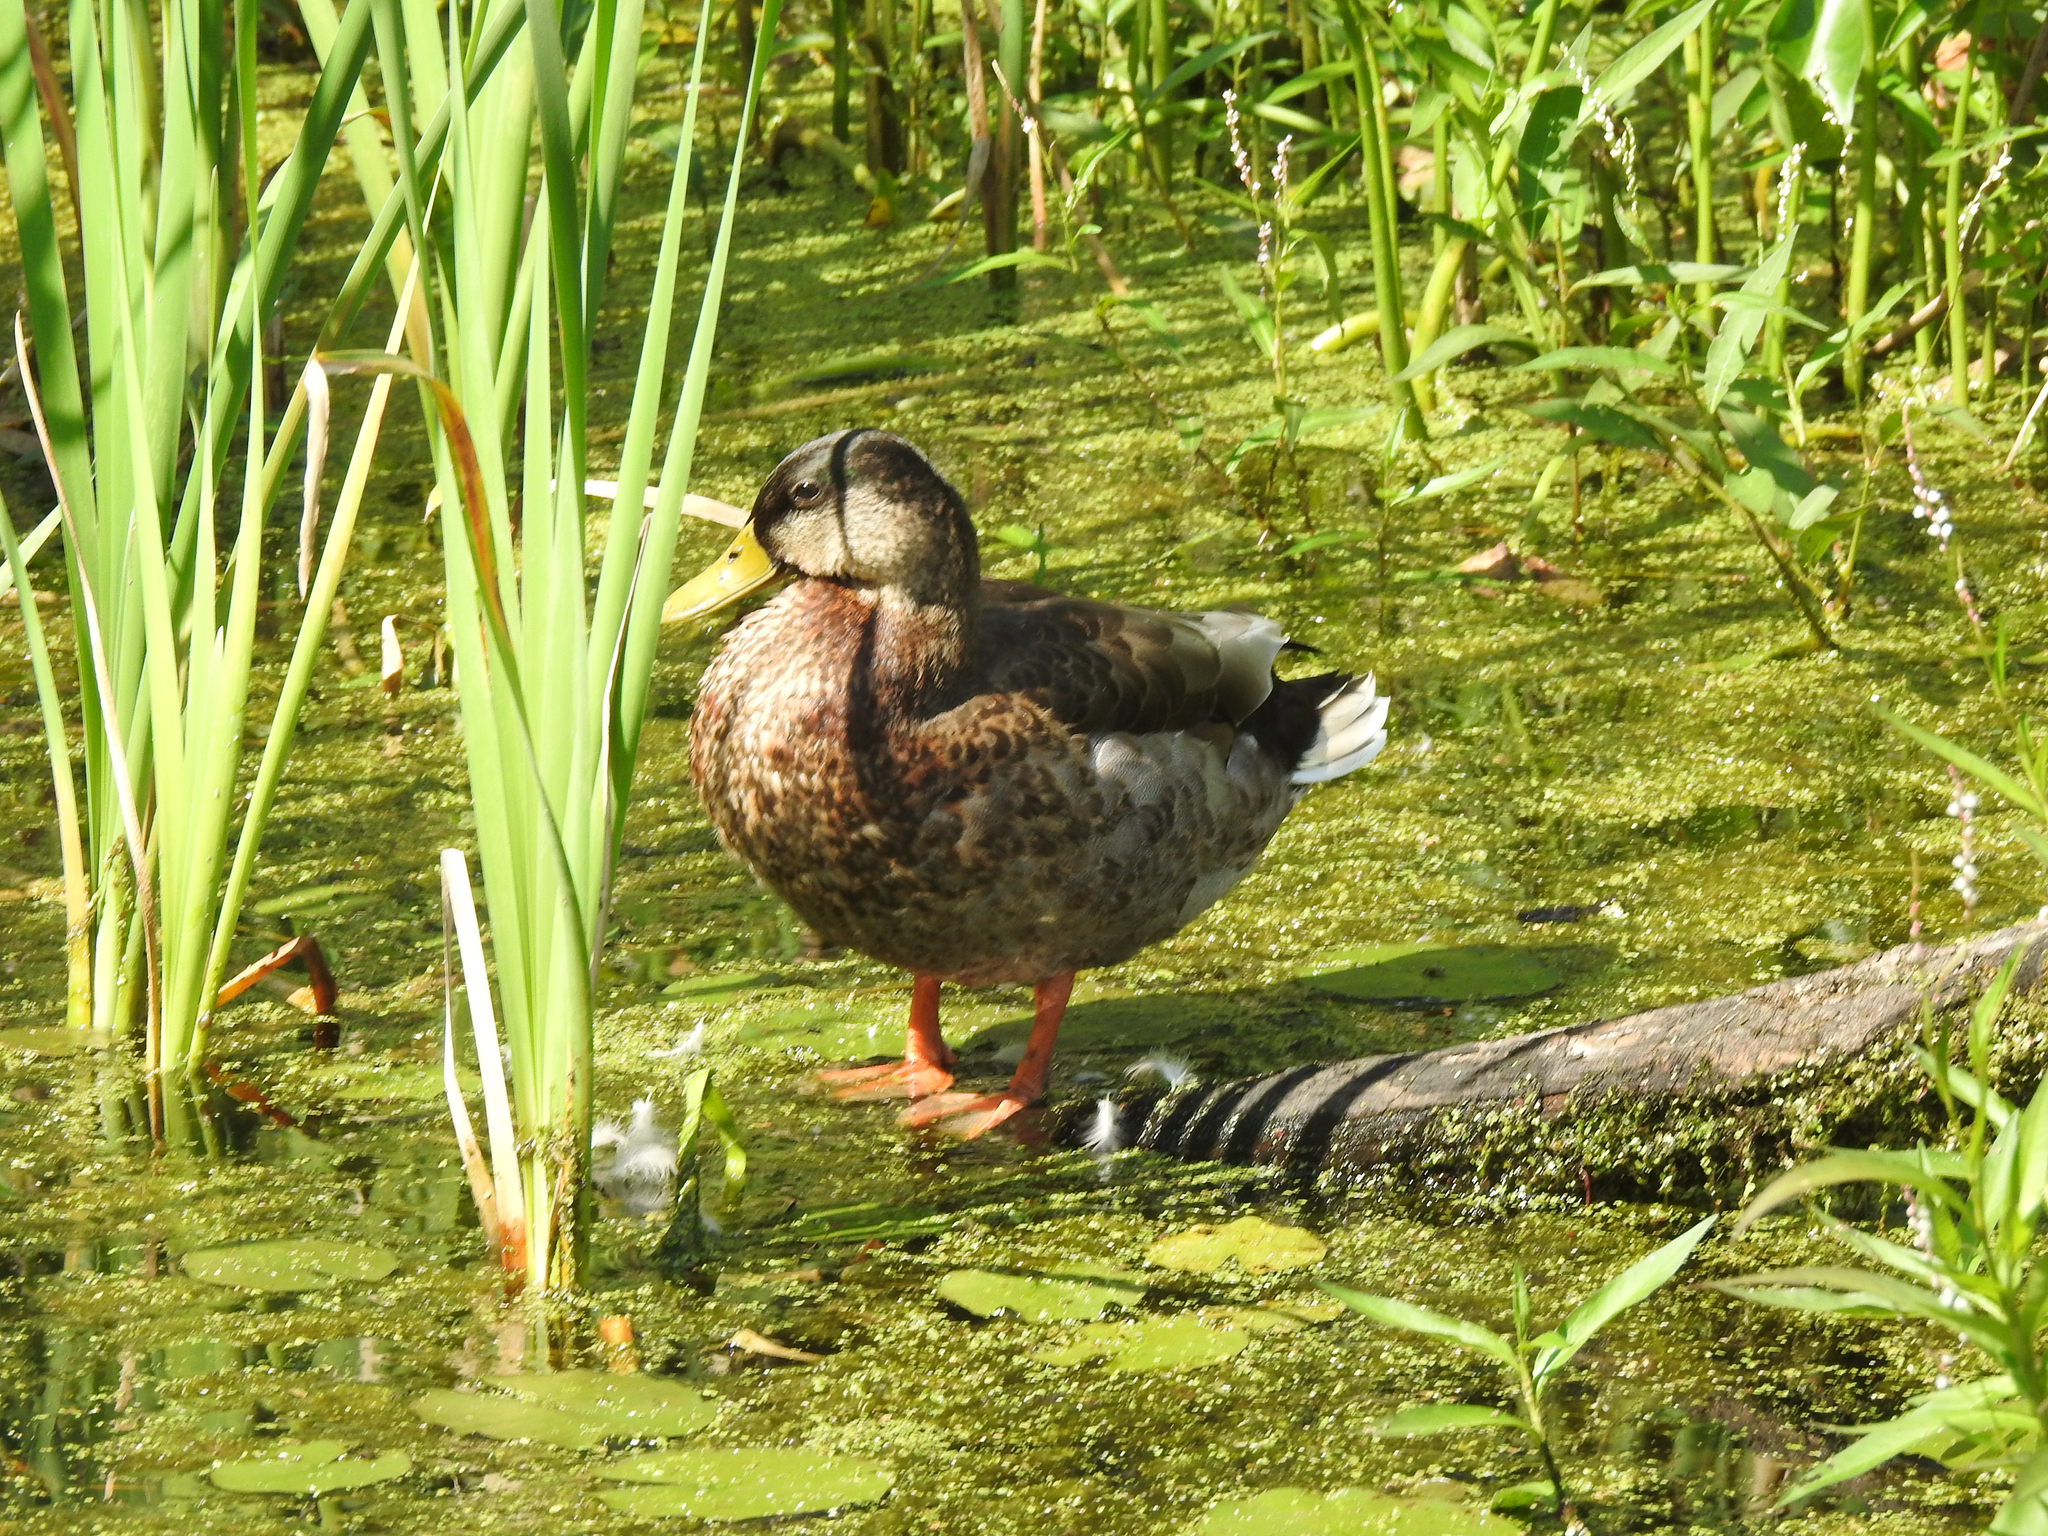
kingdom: Animalia
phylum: Chordata
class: Aves
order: Anseriformes
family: Anatidae
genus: Anas
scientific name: Anas platyrhynchos
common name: Mallard
